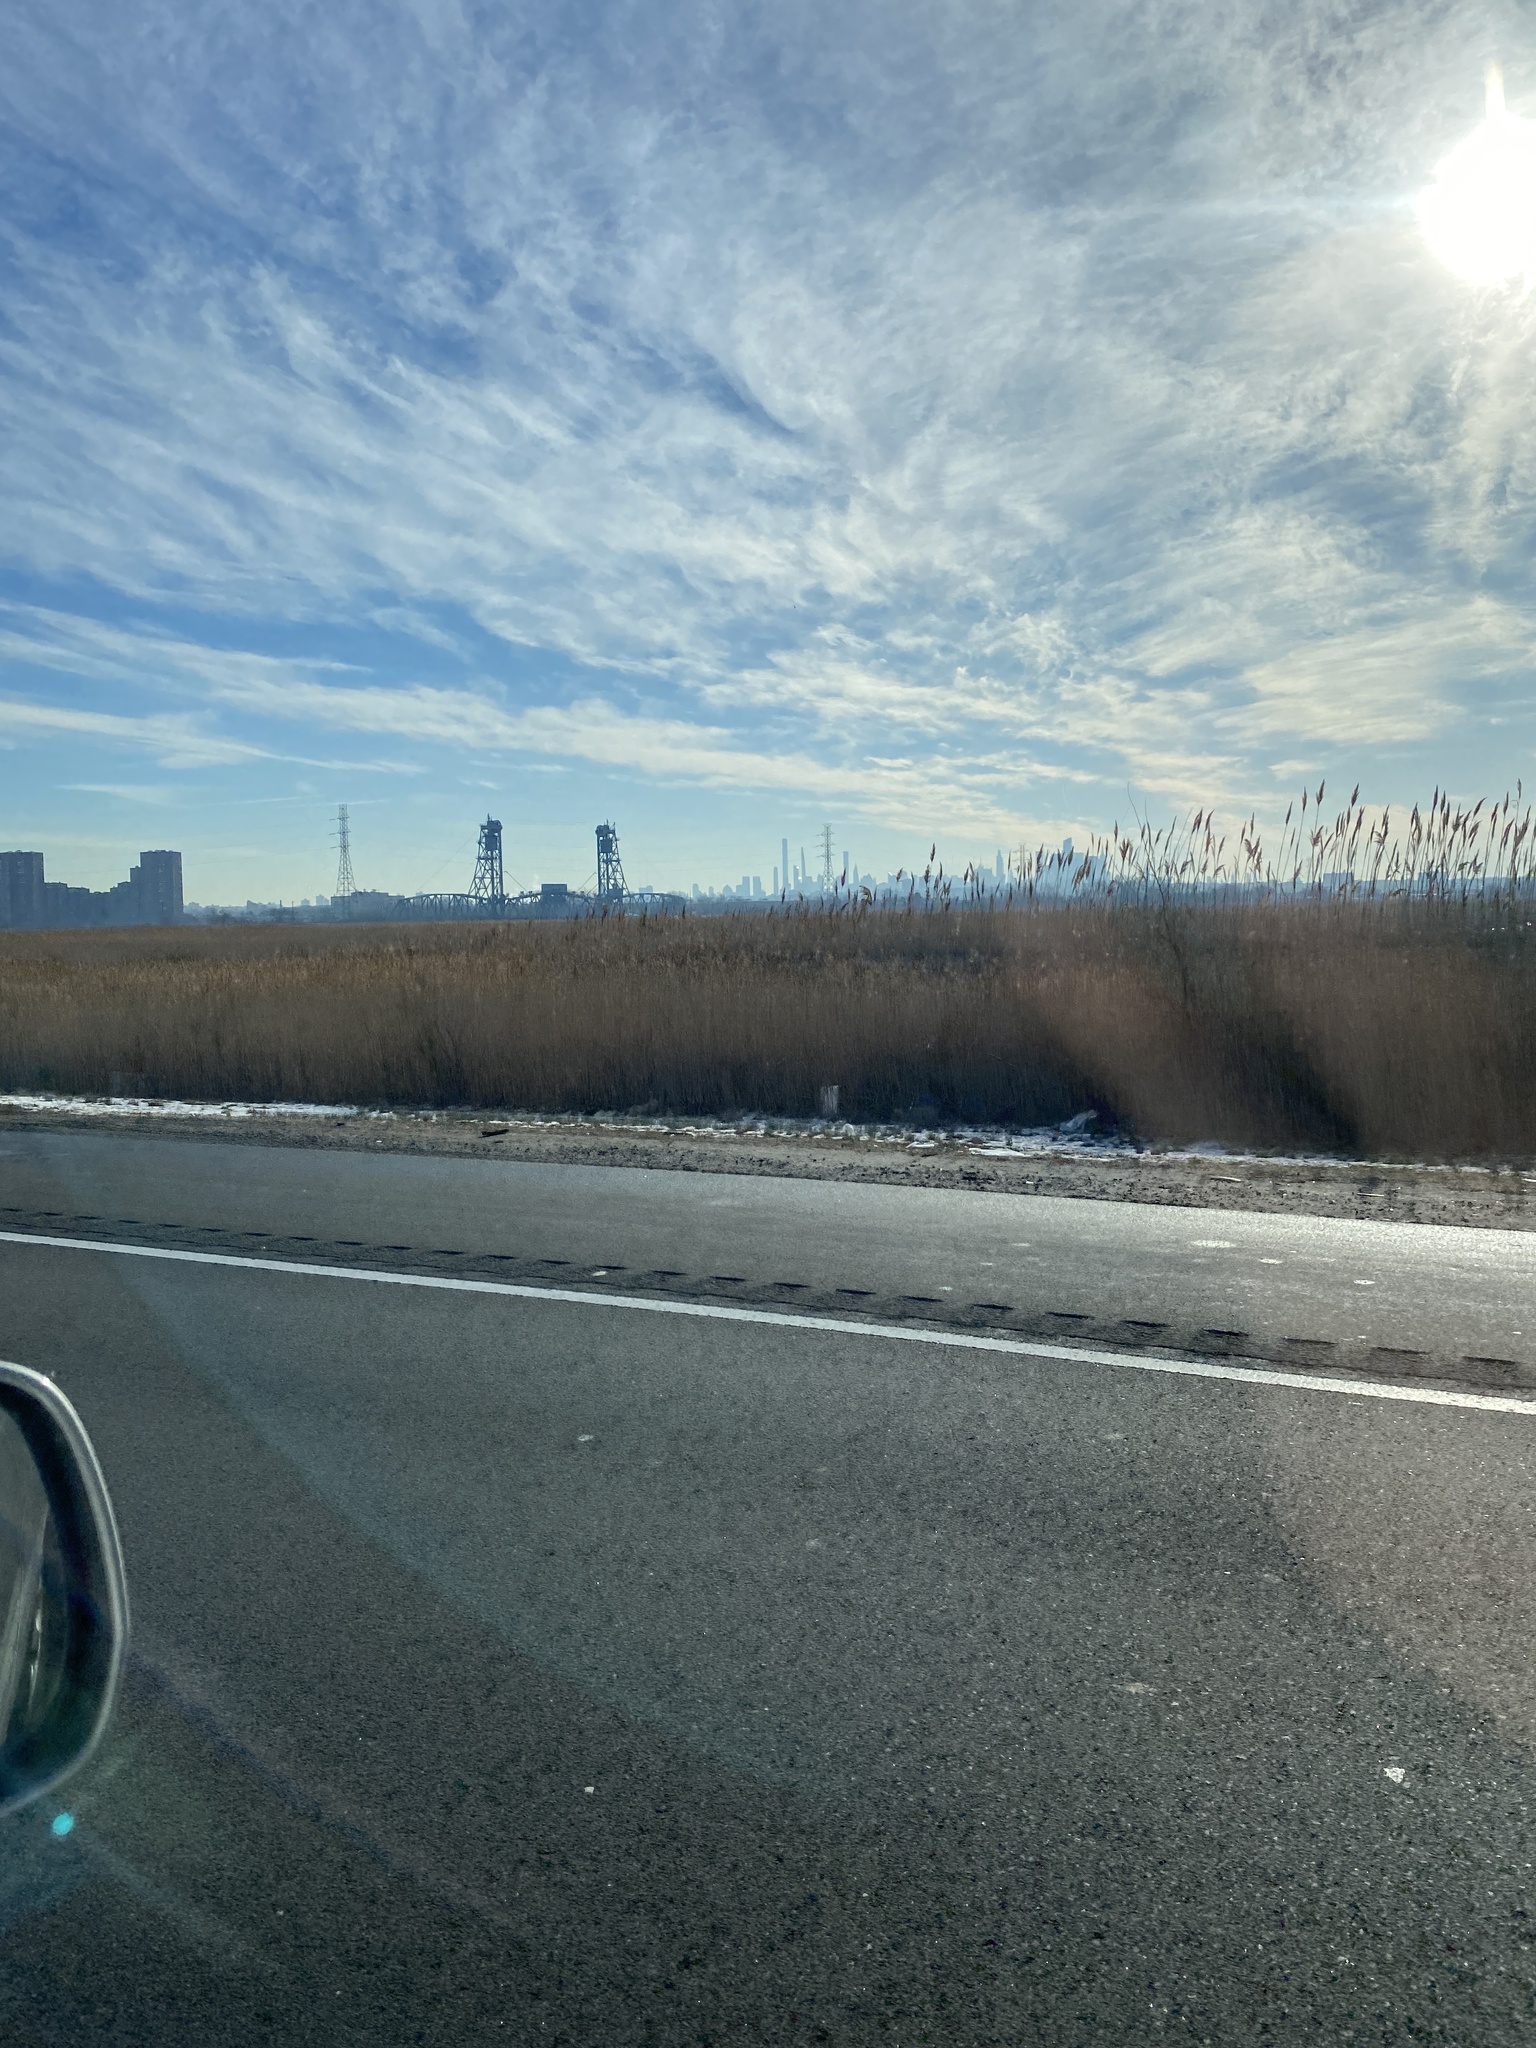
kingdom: Plantae
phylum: Tracheophyta
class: Liliopsida
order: Poales
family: Poaceae
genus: Phragmites
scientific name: Phragmites australis
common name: Common reed
